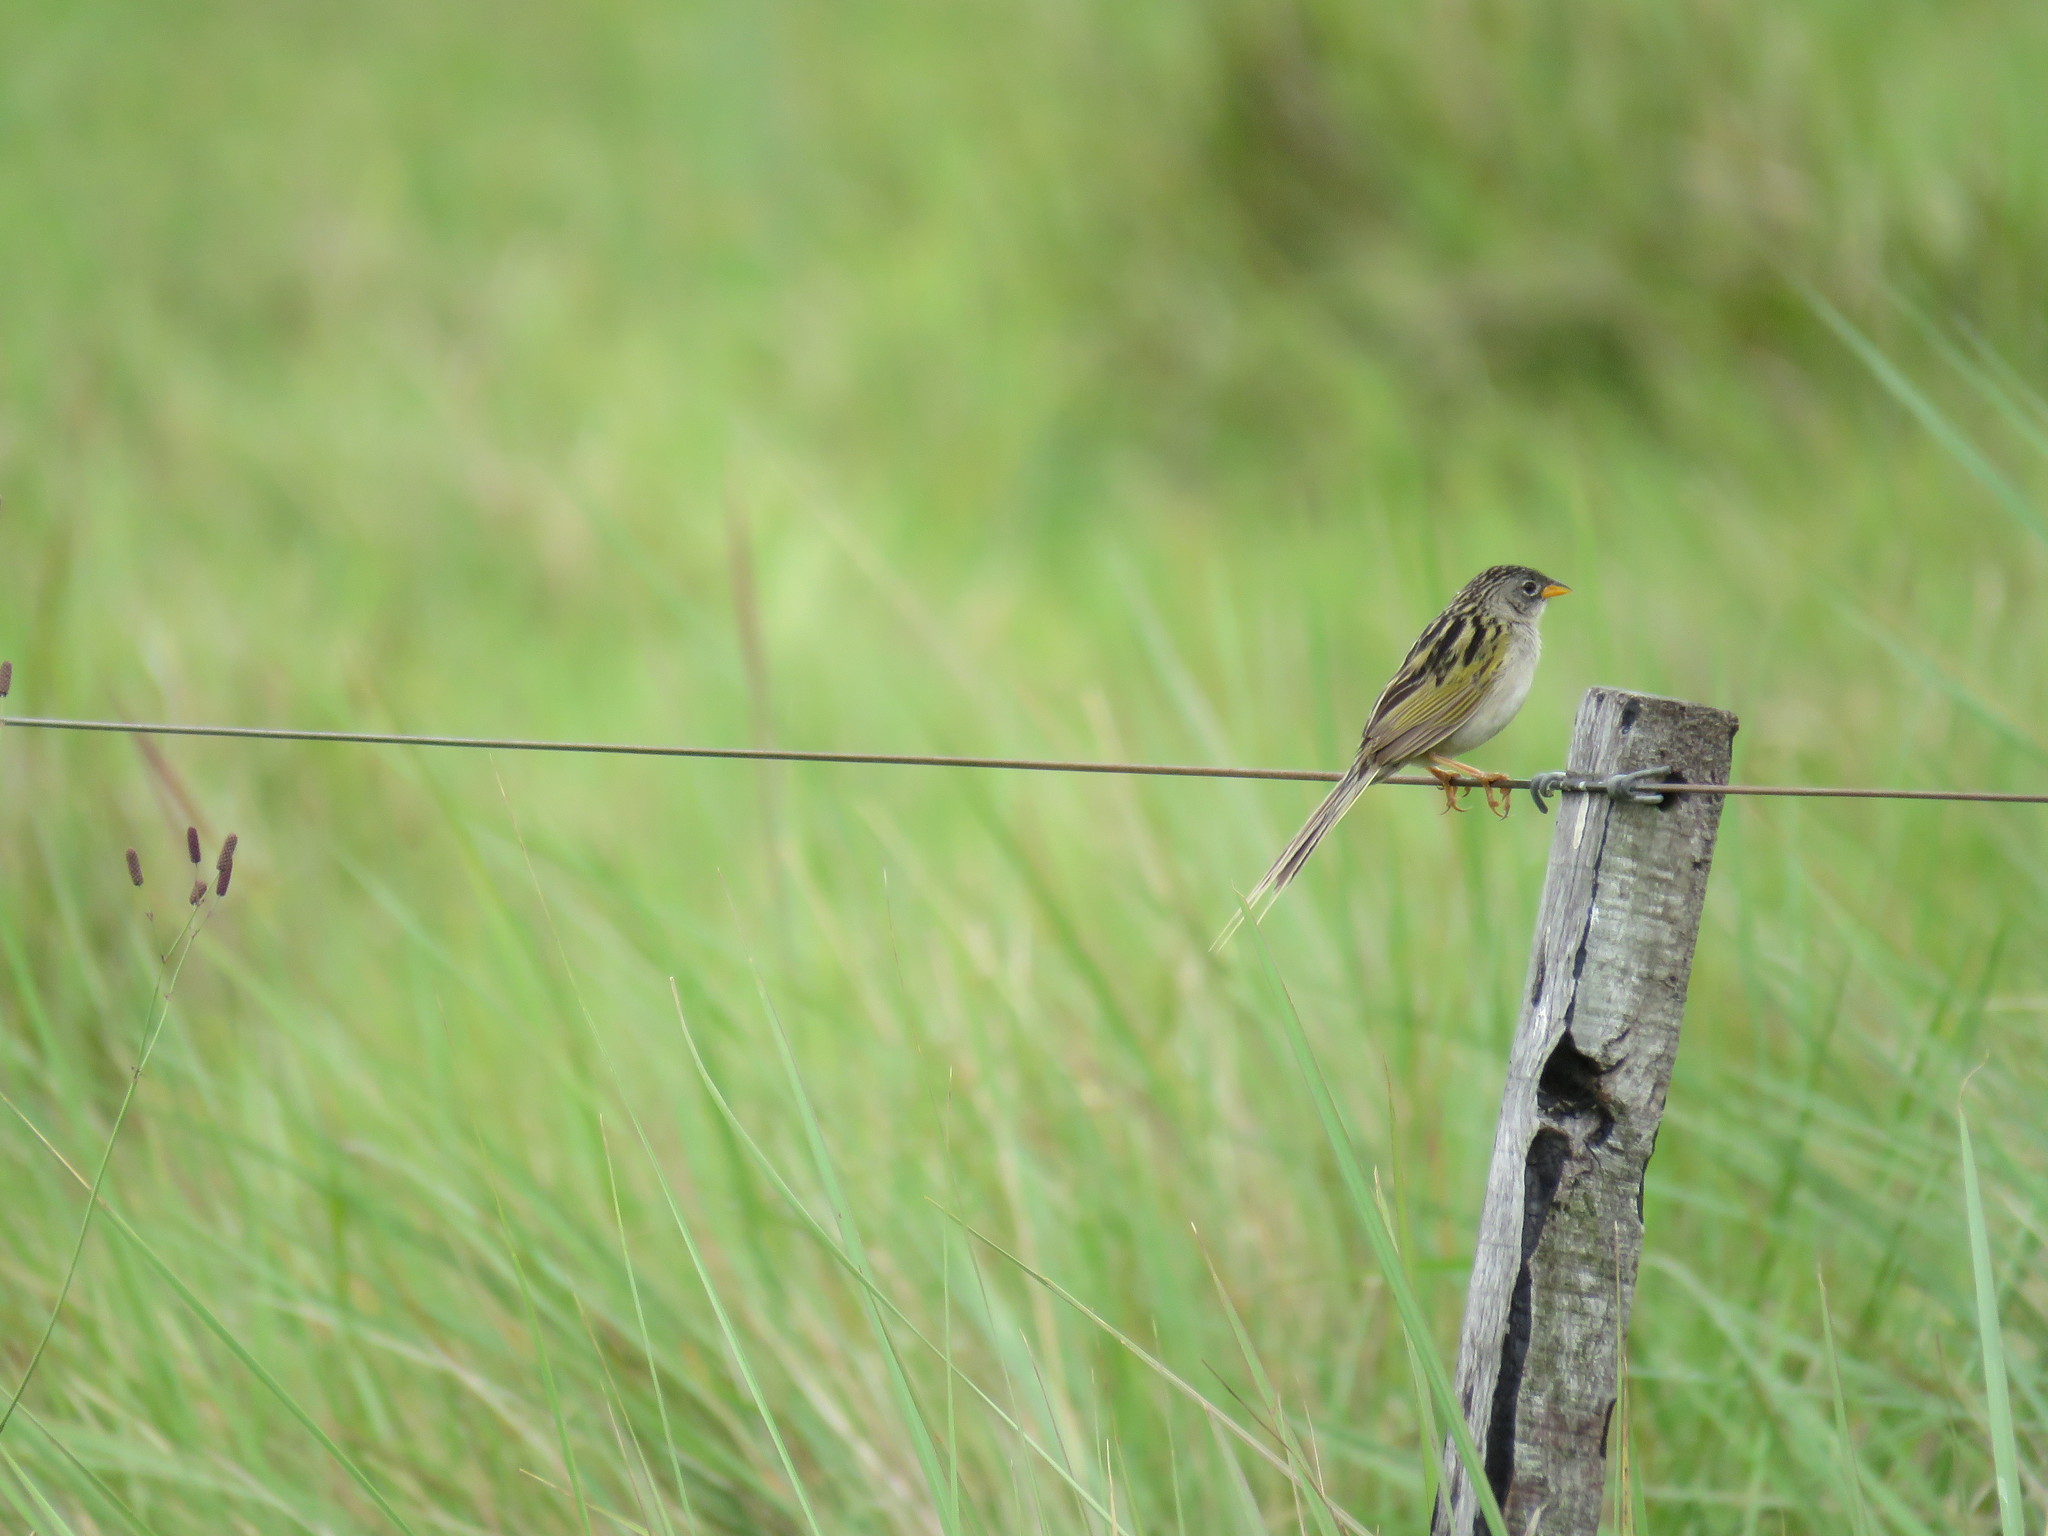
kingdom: Animalia
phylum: Chordata
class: Aves
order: Passeriformes
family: Thraupidae
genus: Emberizoides
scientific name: Emberizoides ypiranganus
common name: Lesser grass finch
